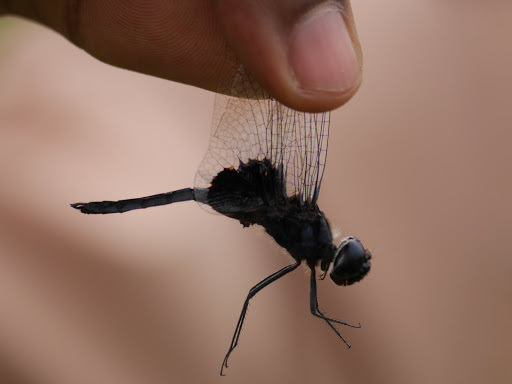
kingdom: Animalia
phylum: Arthropoda
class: Insecta
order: Odonata
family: Libellulidae
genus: Rhyothemis
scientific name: Rhyothemis semihyalina
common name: Phantom flutterer
